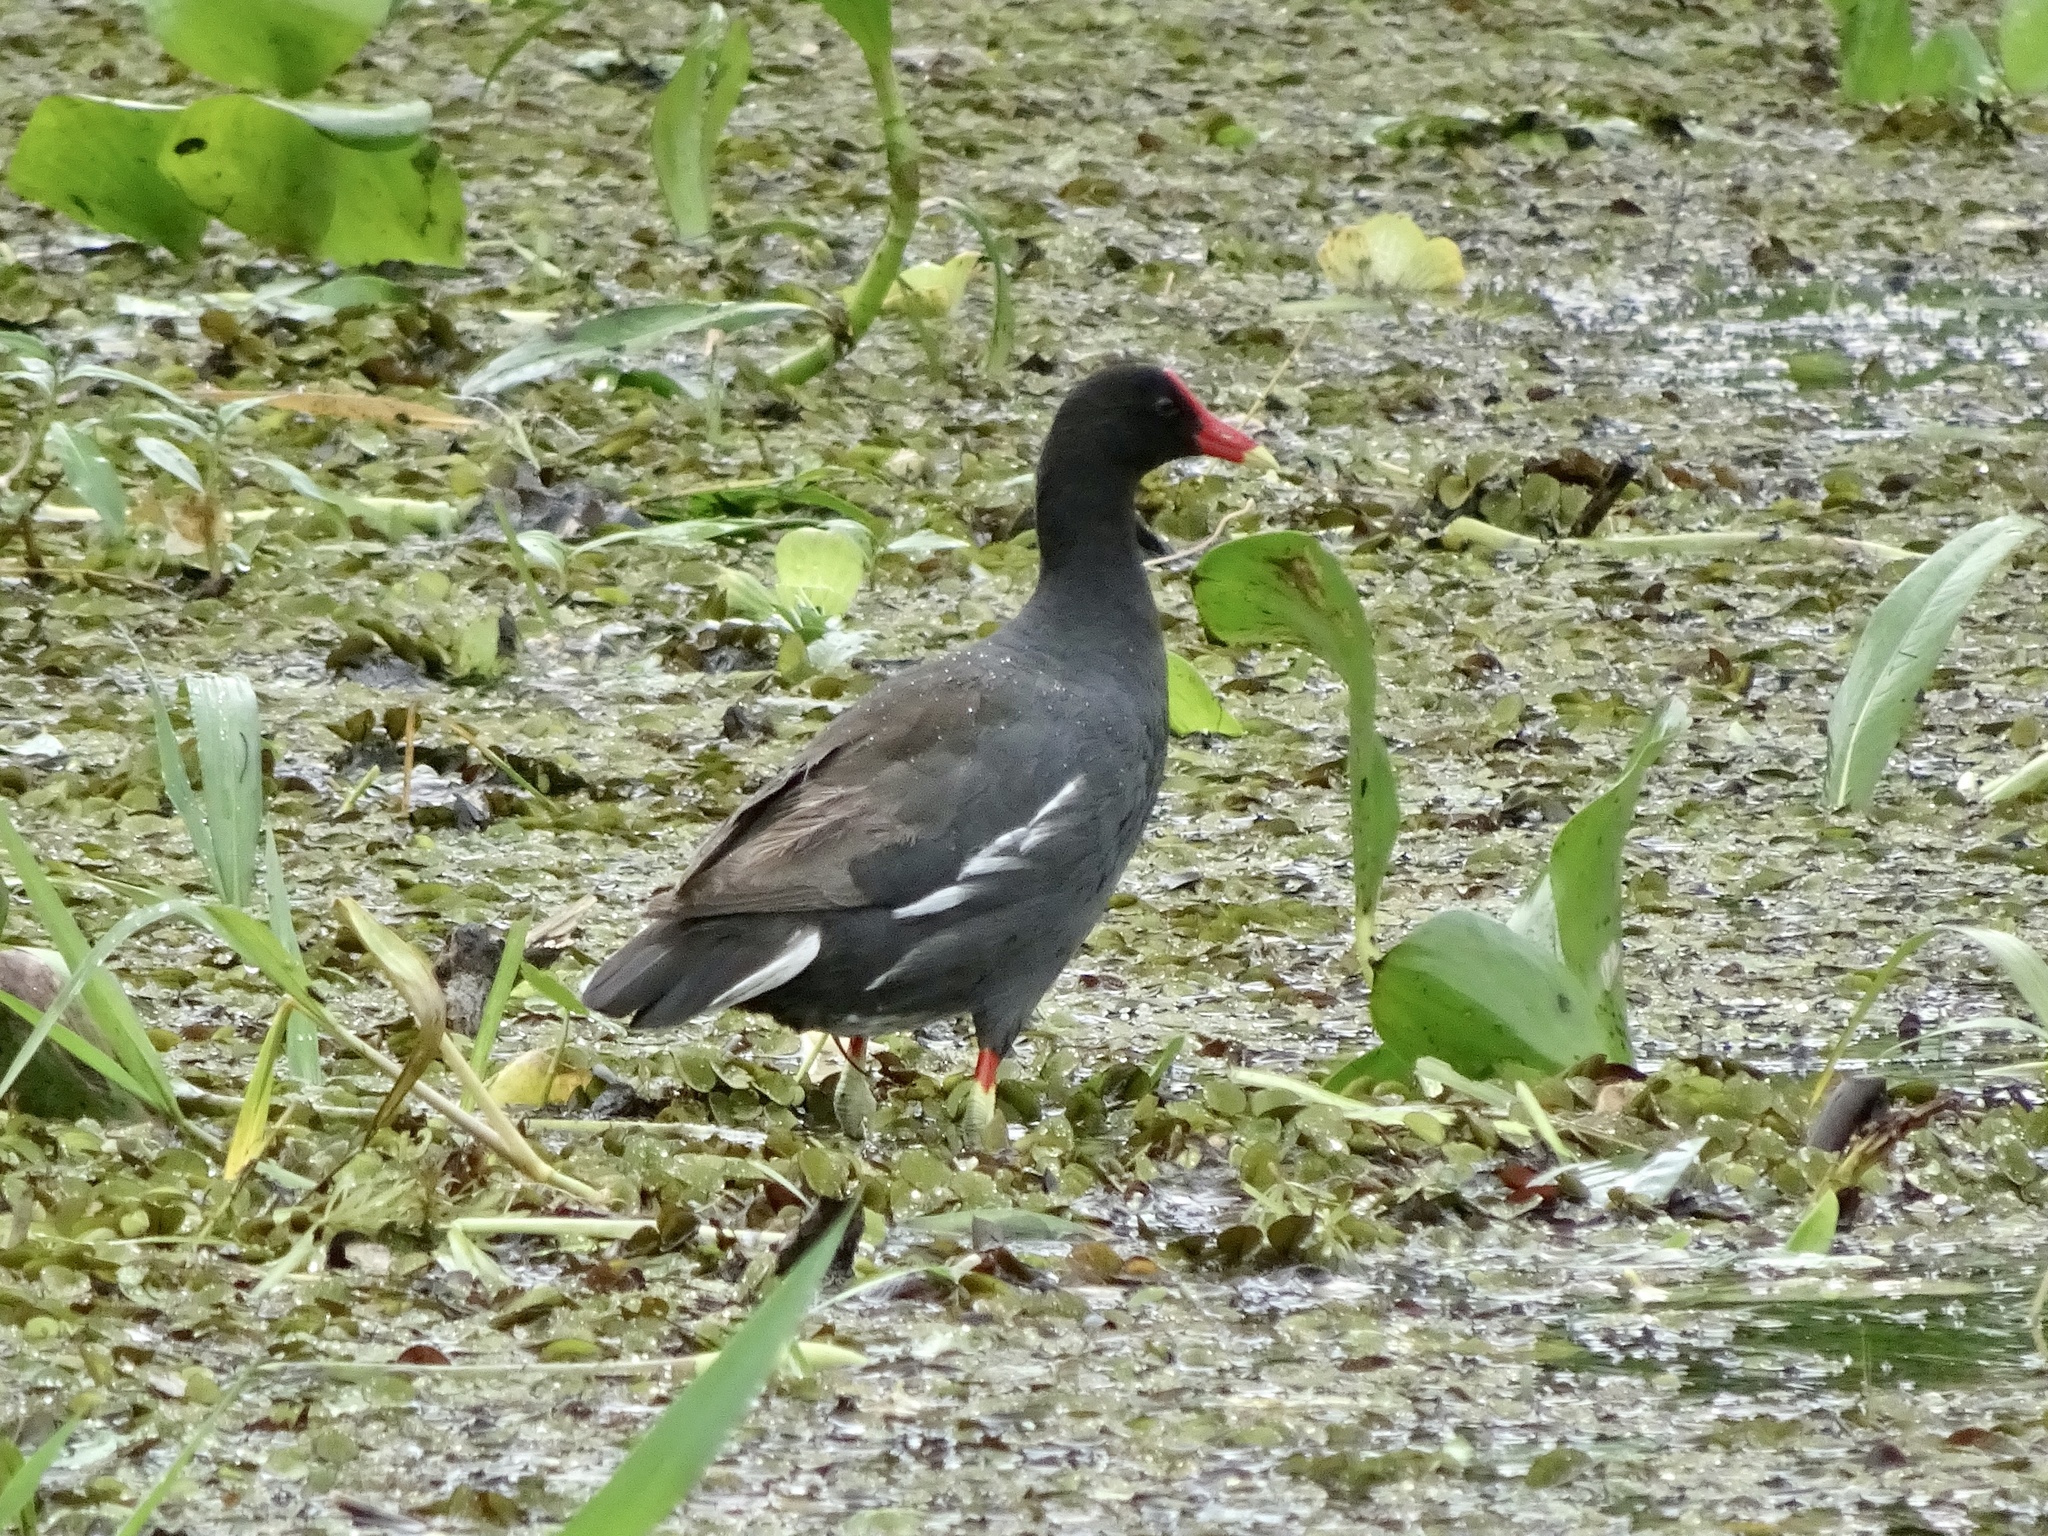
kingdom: Animalia
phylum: Chordata
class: Aves
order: Gruiformes
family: Rallidae
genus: Gallinula
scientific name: Gallinula chloropus
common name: Common moorhen
